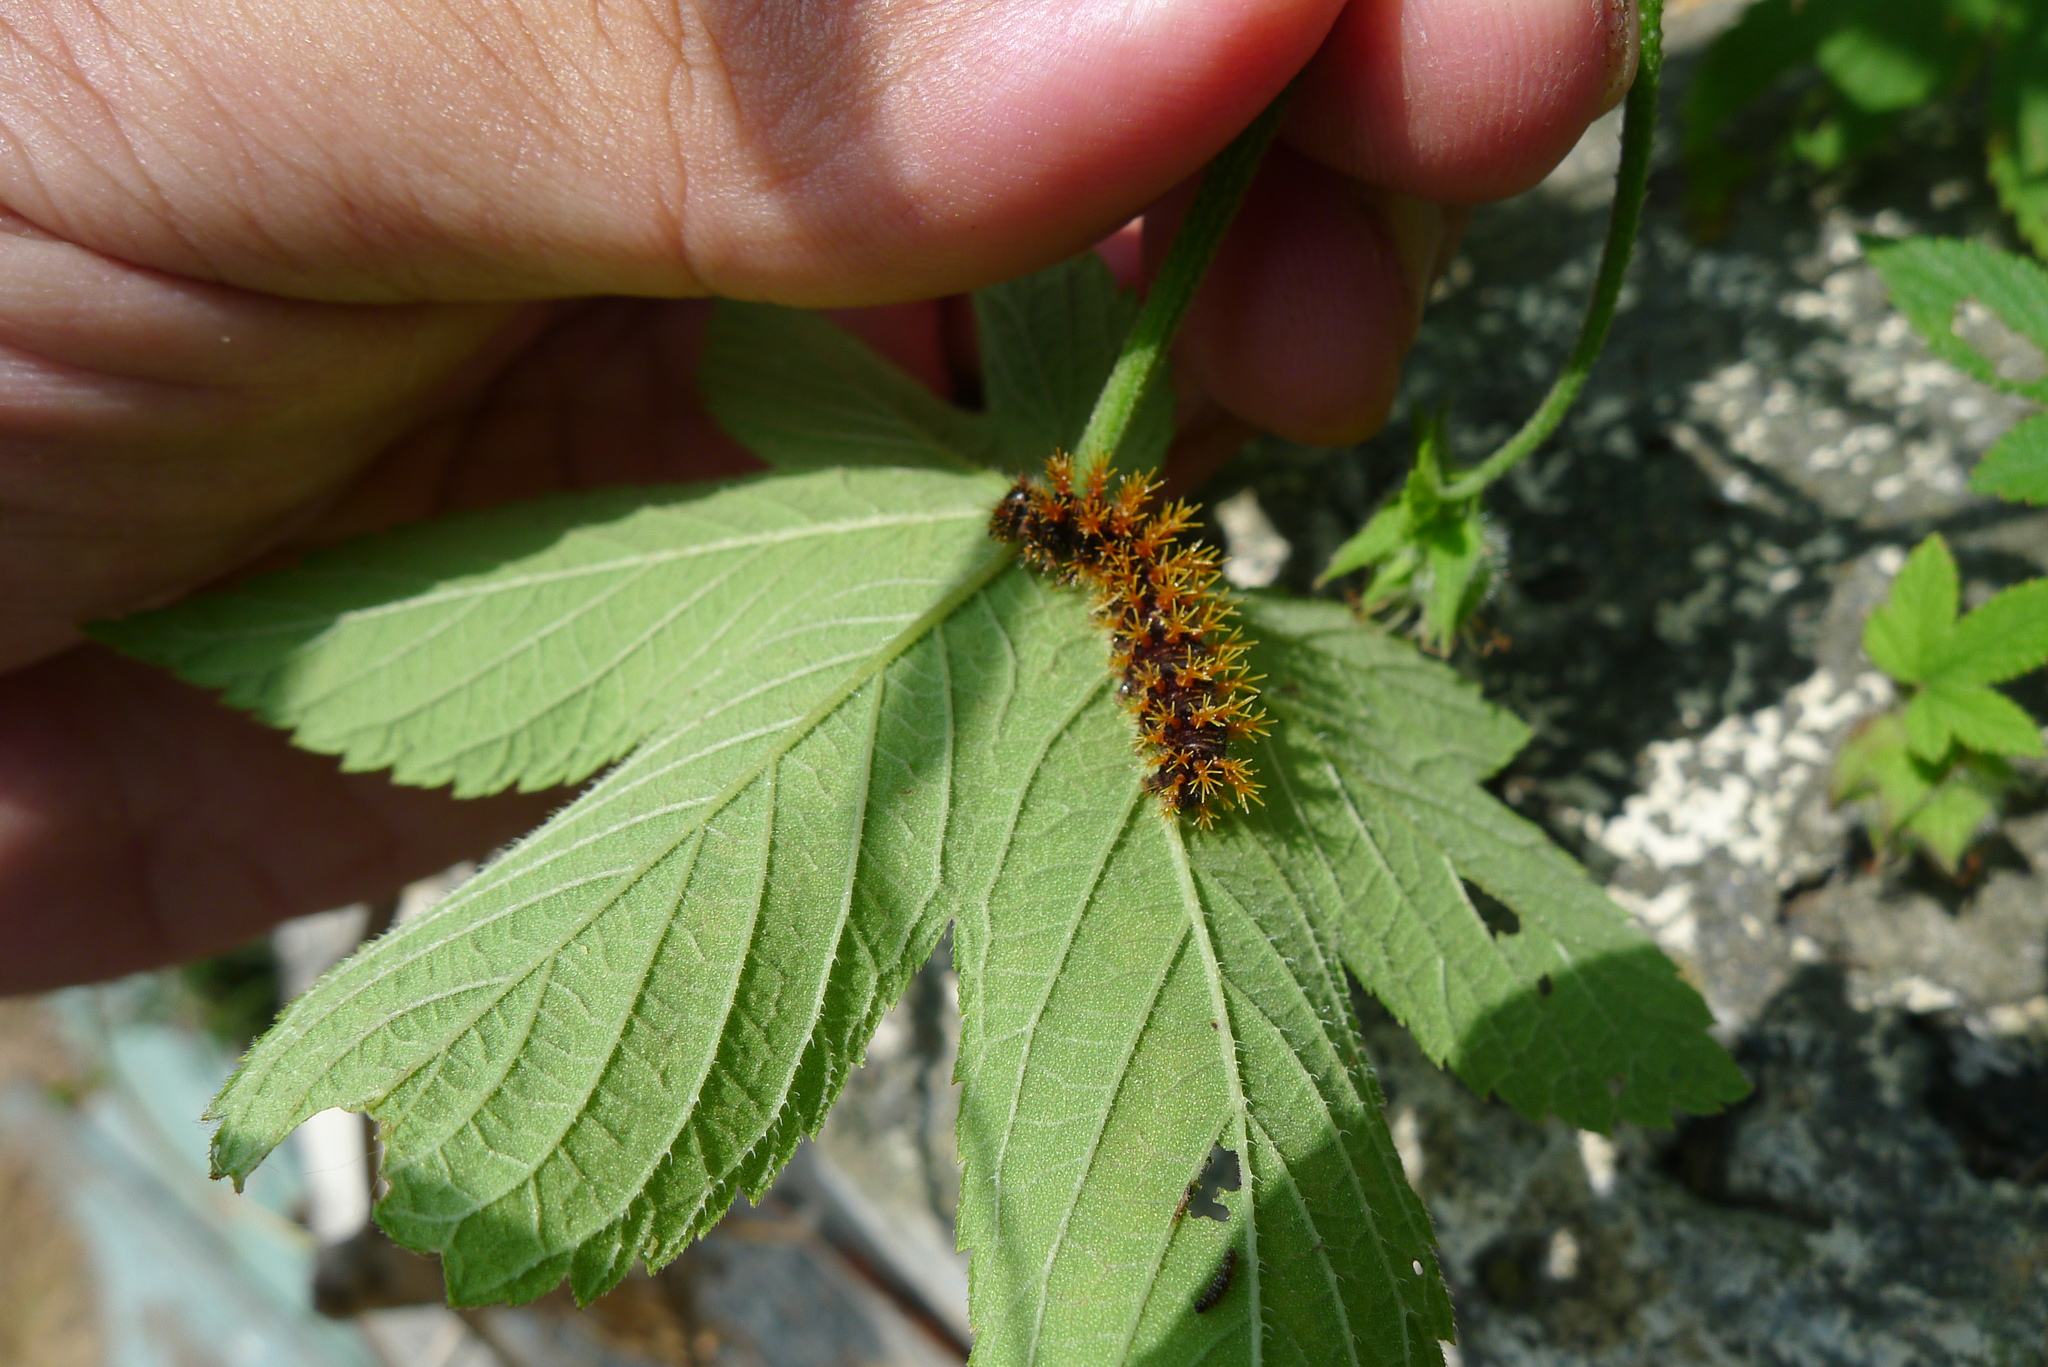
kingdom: Animalia
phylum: Arthropoda
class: Insecta
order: Lepidoptera
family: Nymphalidae
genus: Polygonia
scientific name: Polygonia c-aureum
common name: Asian comma
